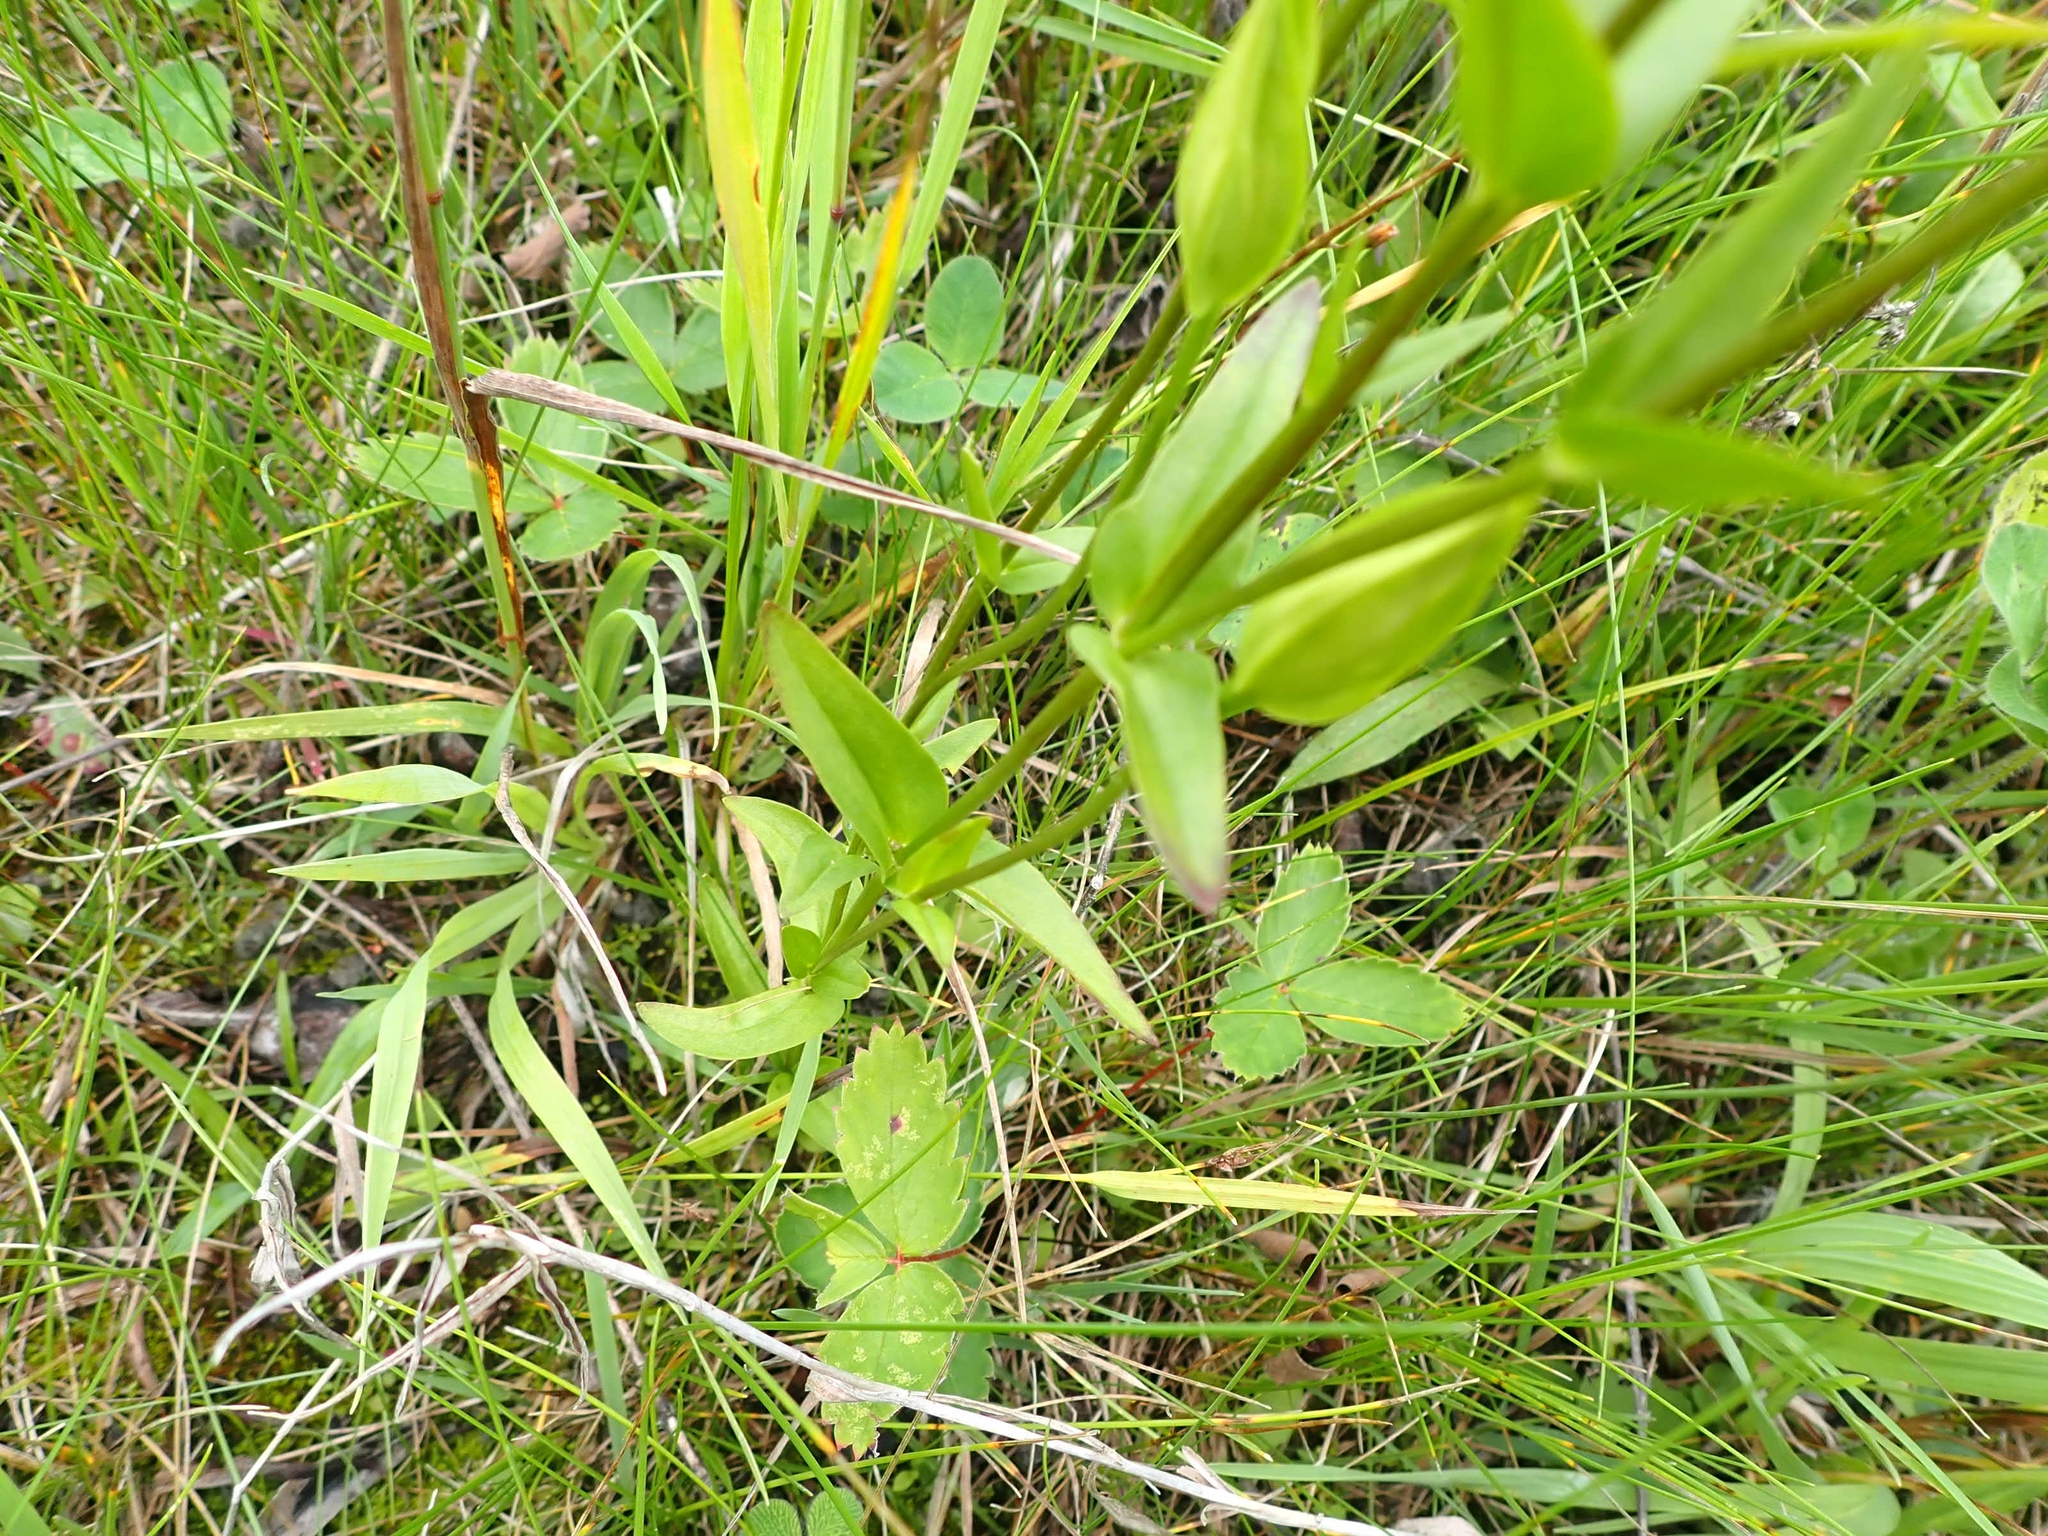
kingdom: Plantae
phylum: Tracheophyta
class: Magnoliopsida
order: Gentianales
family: Gentianaceae
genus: Gentianopsis
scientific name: Gentianopsis crinita
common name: Fringed-gentian
